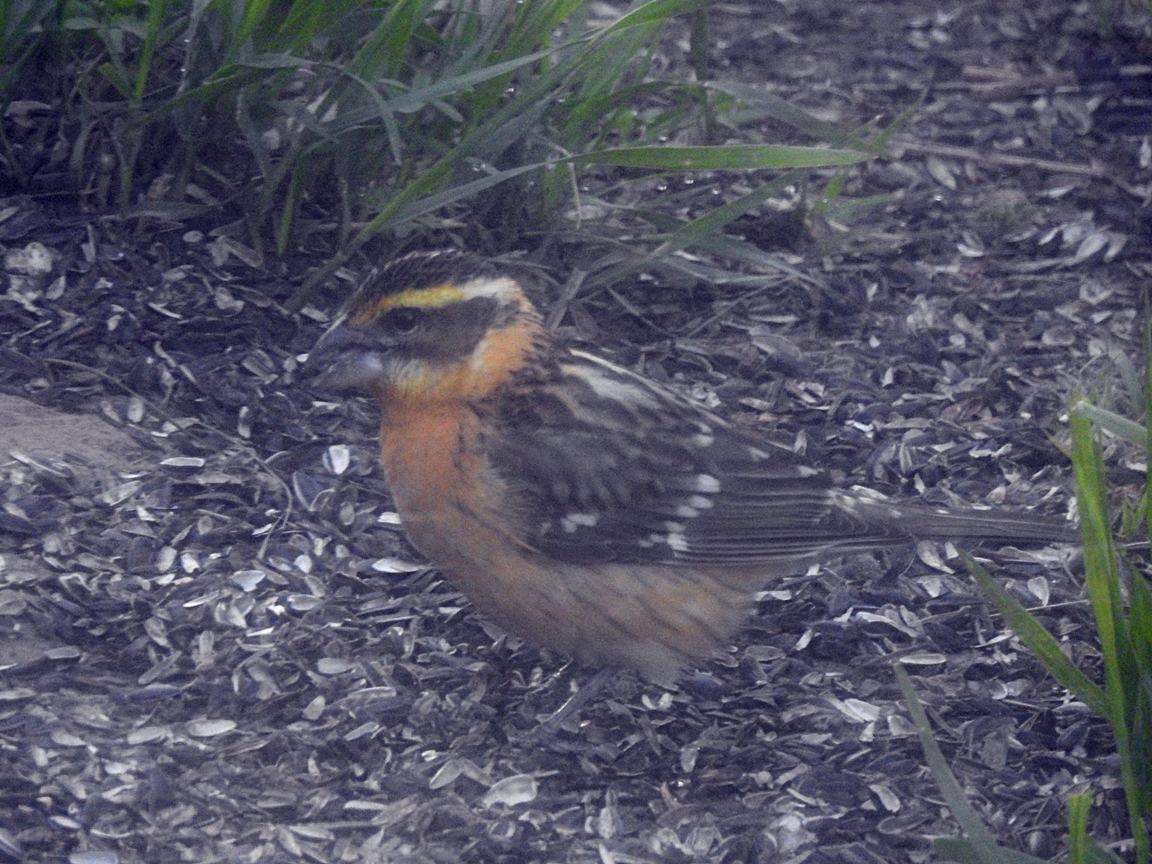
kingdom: Animalia
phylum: Chordata
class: Aves
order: Passeriformes
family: Cardinalidae
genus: Pheucticus
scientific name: Pheucticus melanocephalus
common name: Black-headed grosbeak
